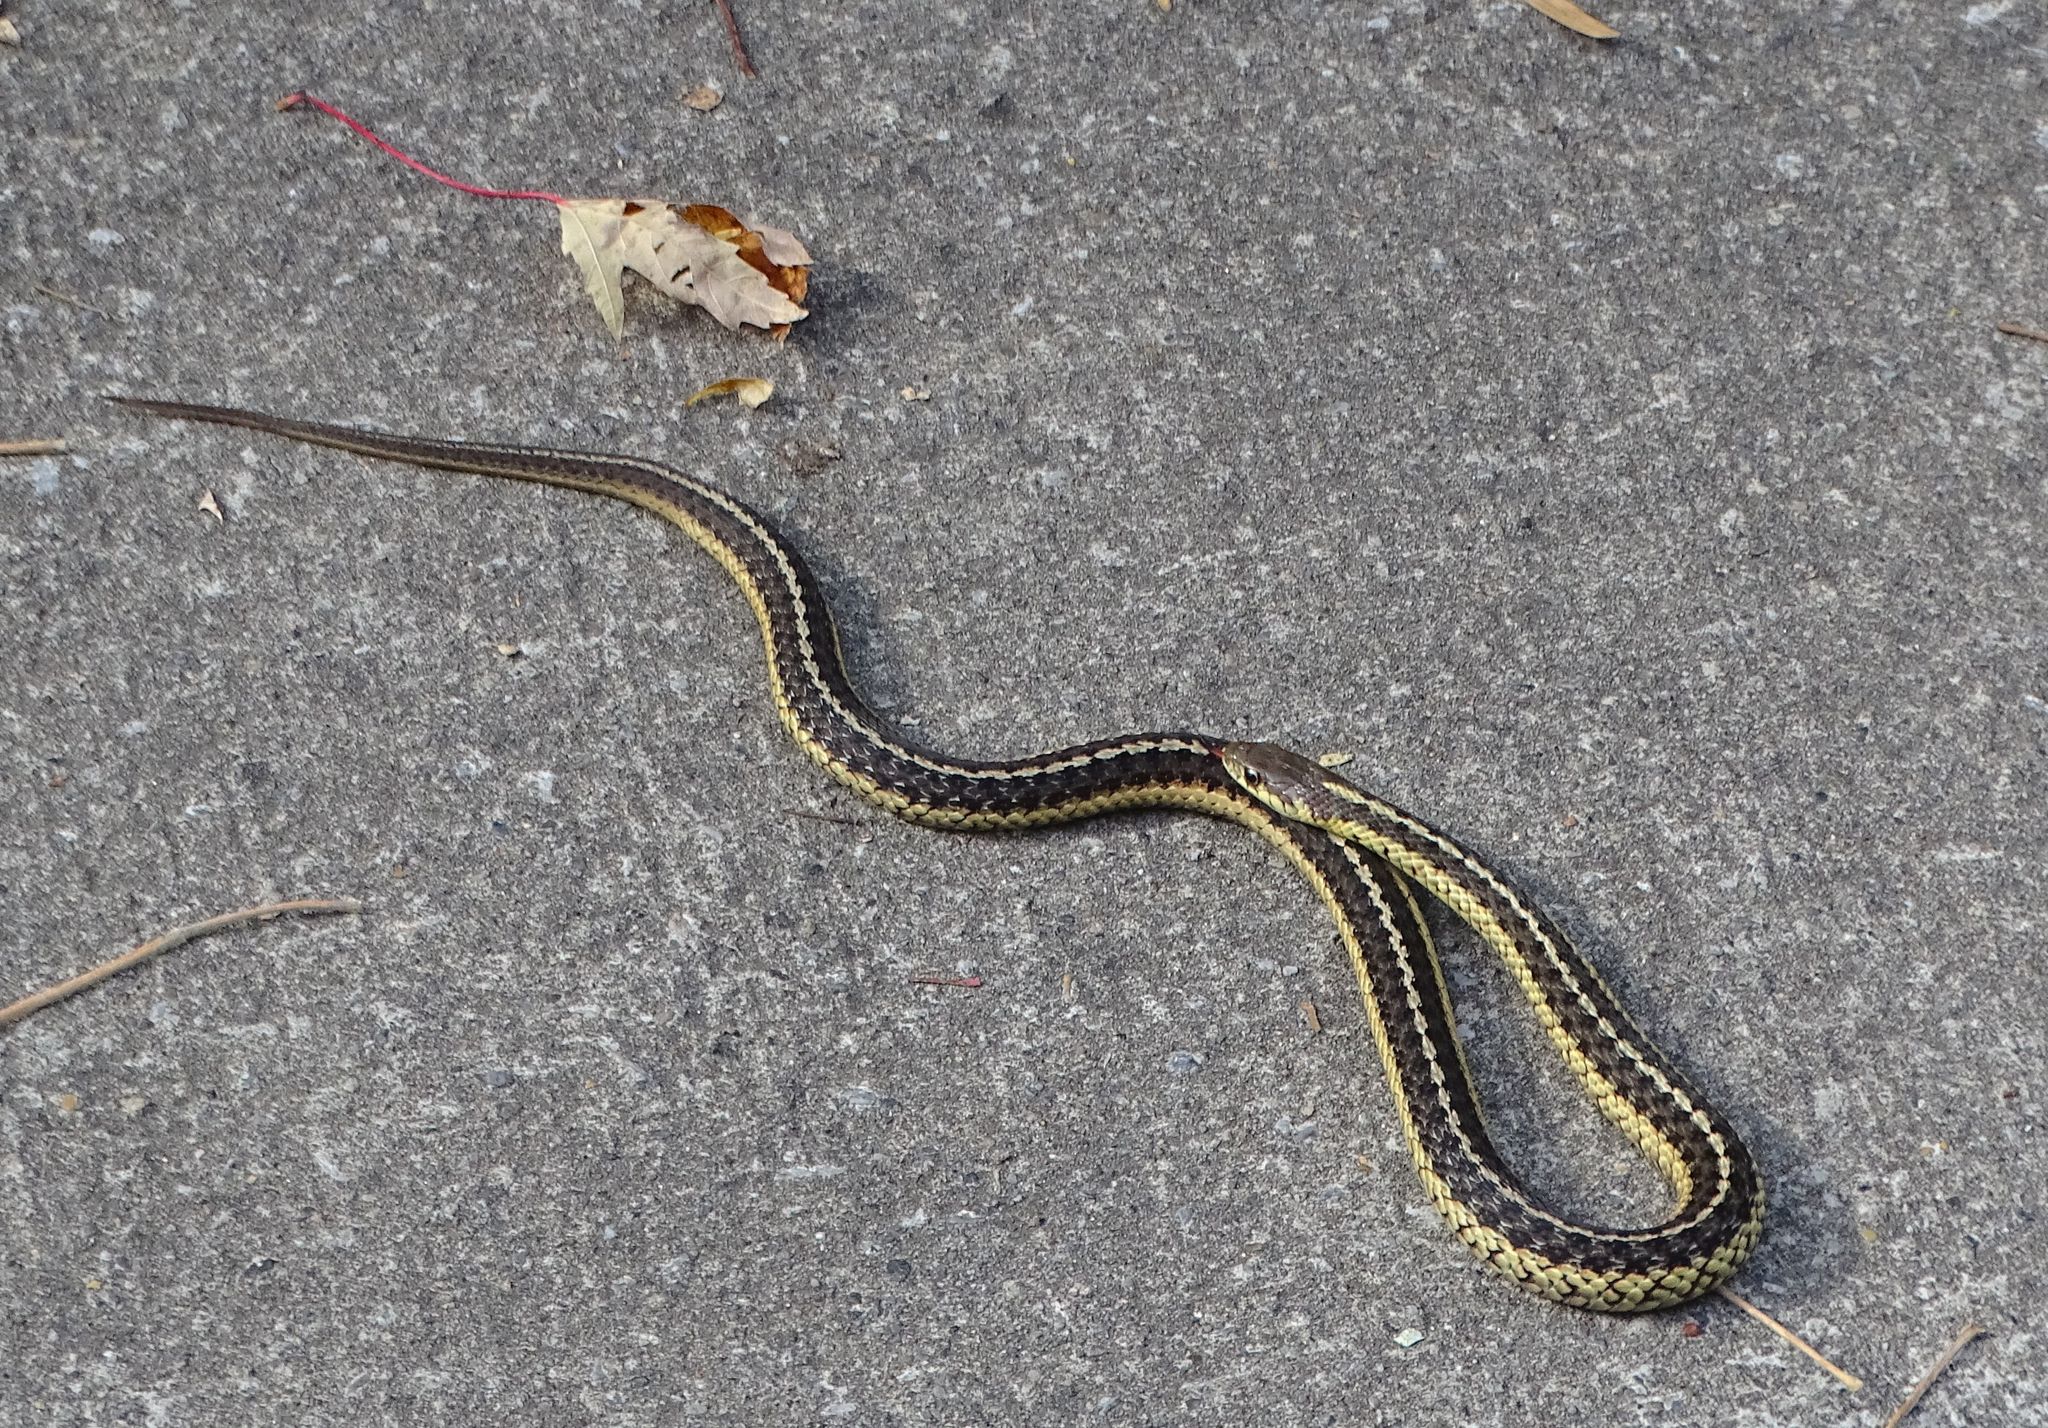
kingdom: Animalia
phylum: Chordata
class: Squamata
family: Colubridae
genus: Thamnophis
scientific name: Thamnophis sirtalis
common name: Common garter snake
